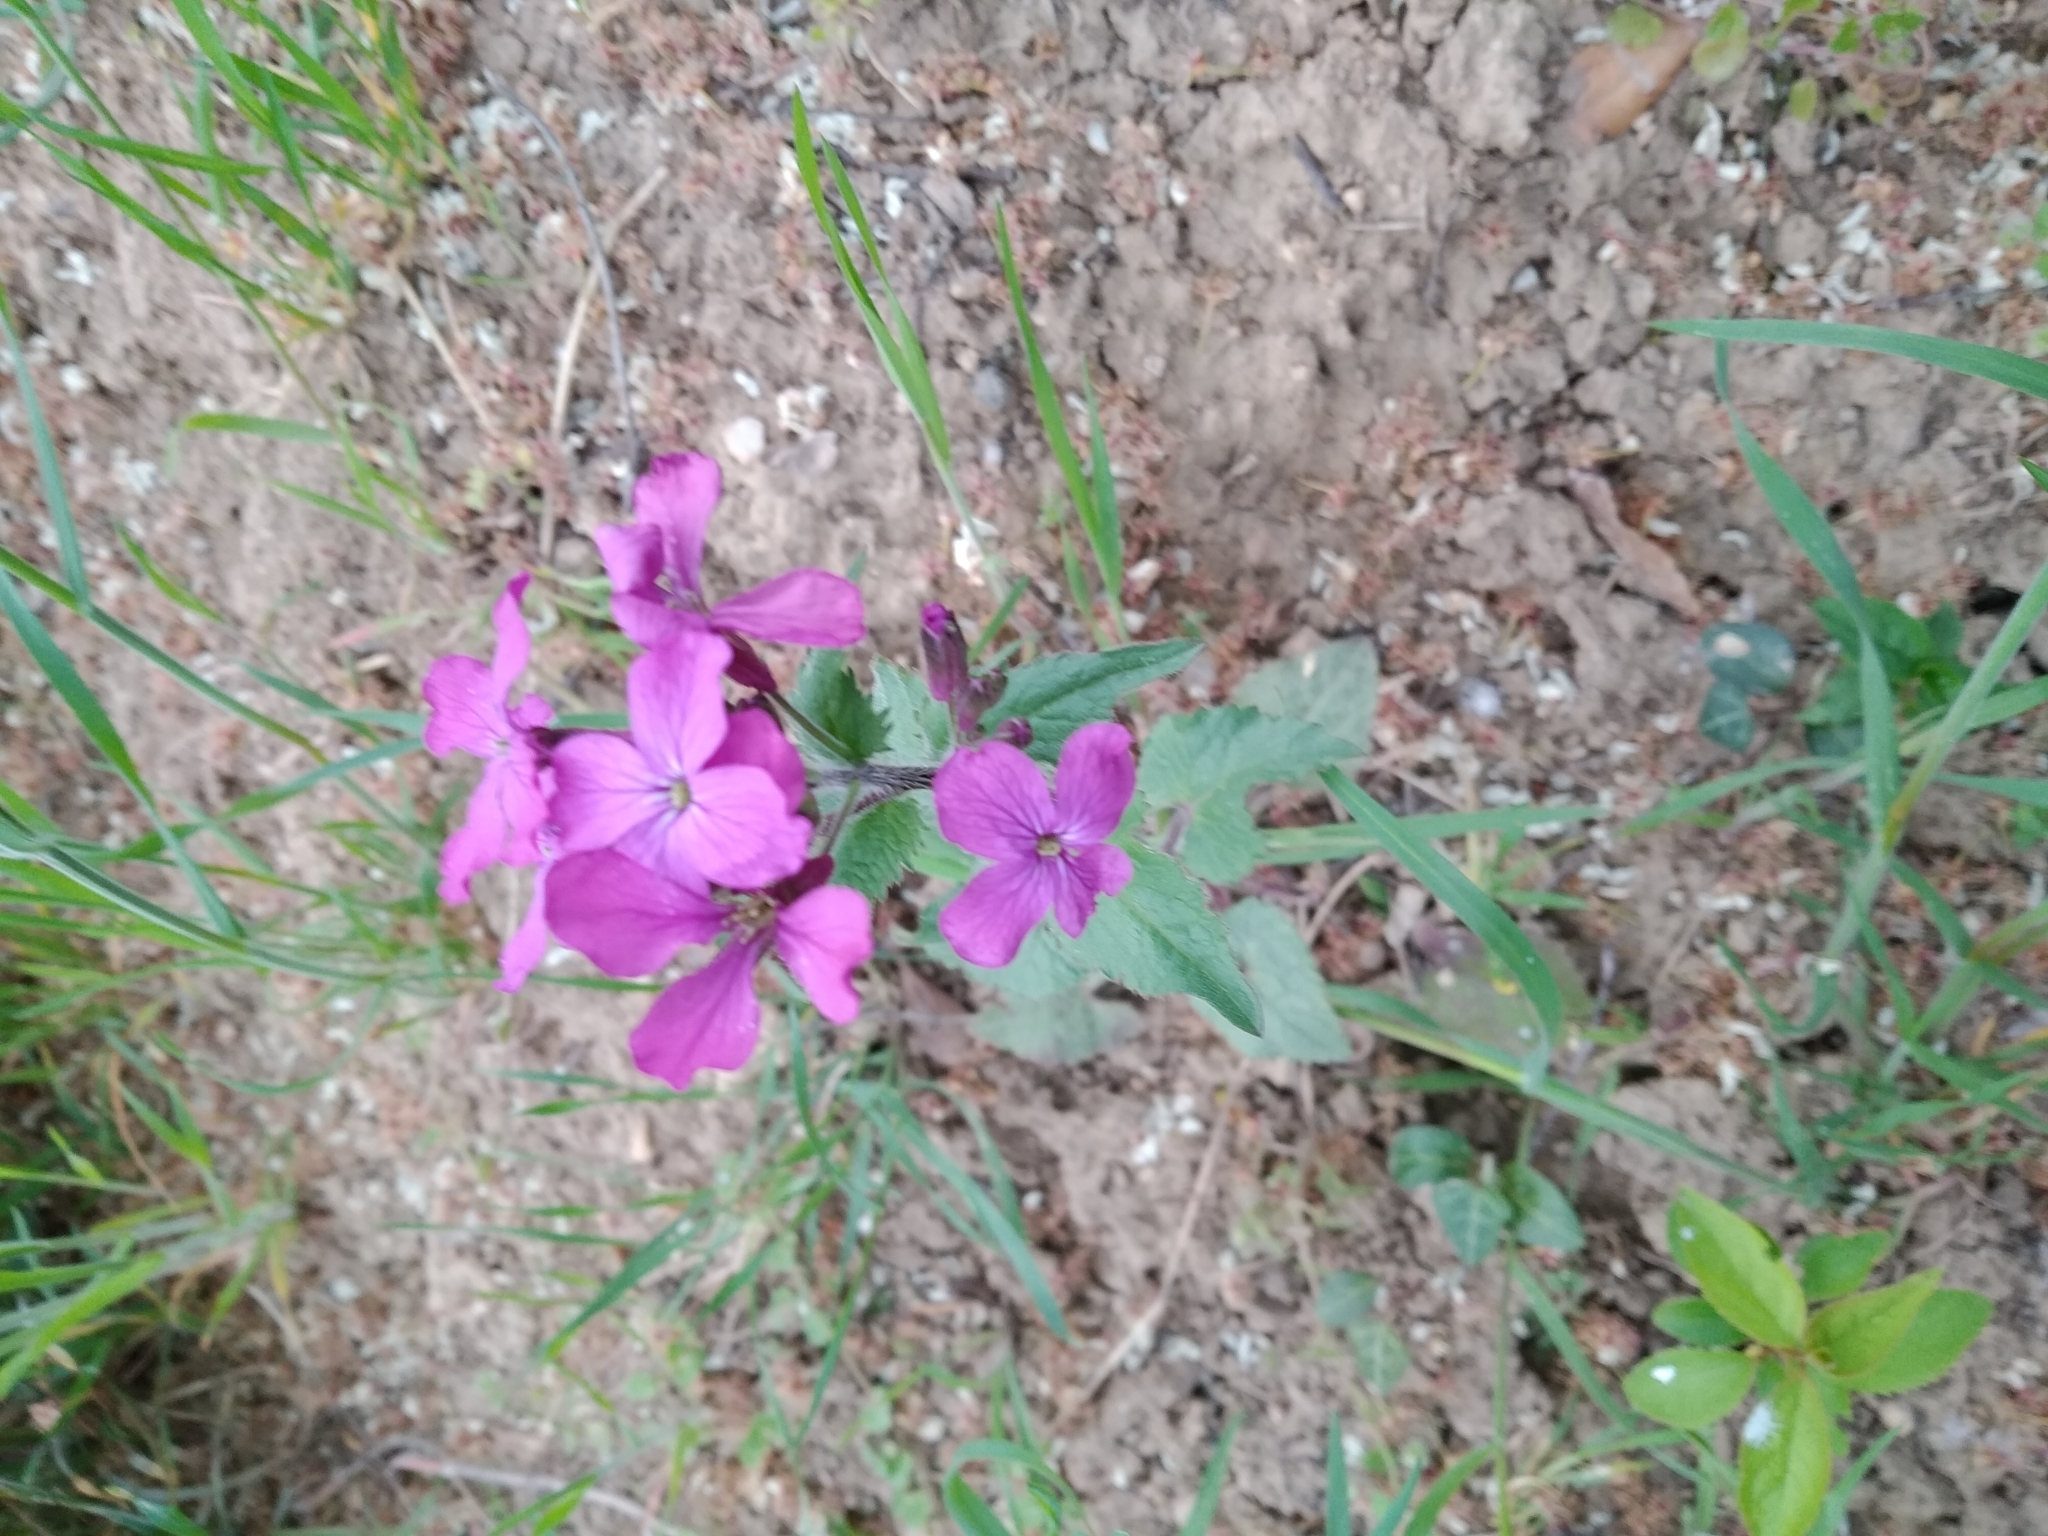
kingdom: Plantae
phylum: Tracheophyta
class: Magnoliopsida
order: Brassicales
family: Brassicaceae
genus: Lunaria
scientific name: Lunaria annua
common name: Honesty
